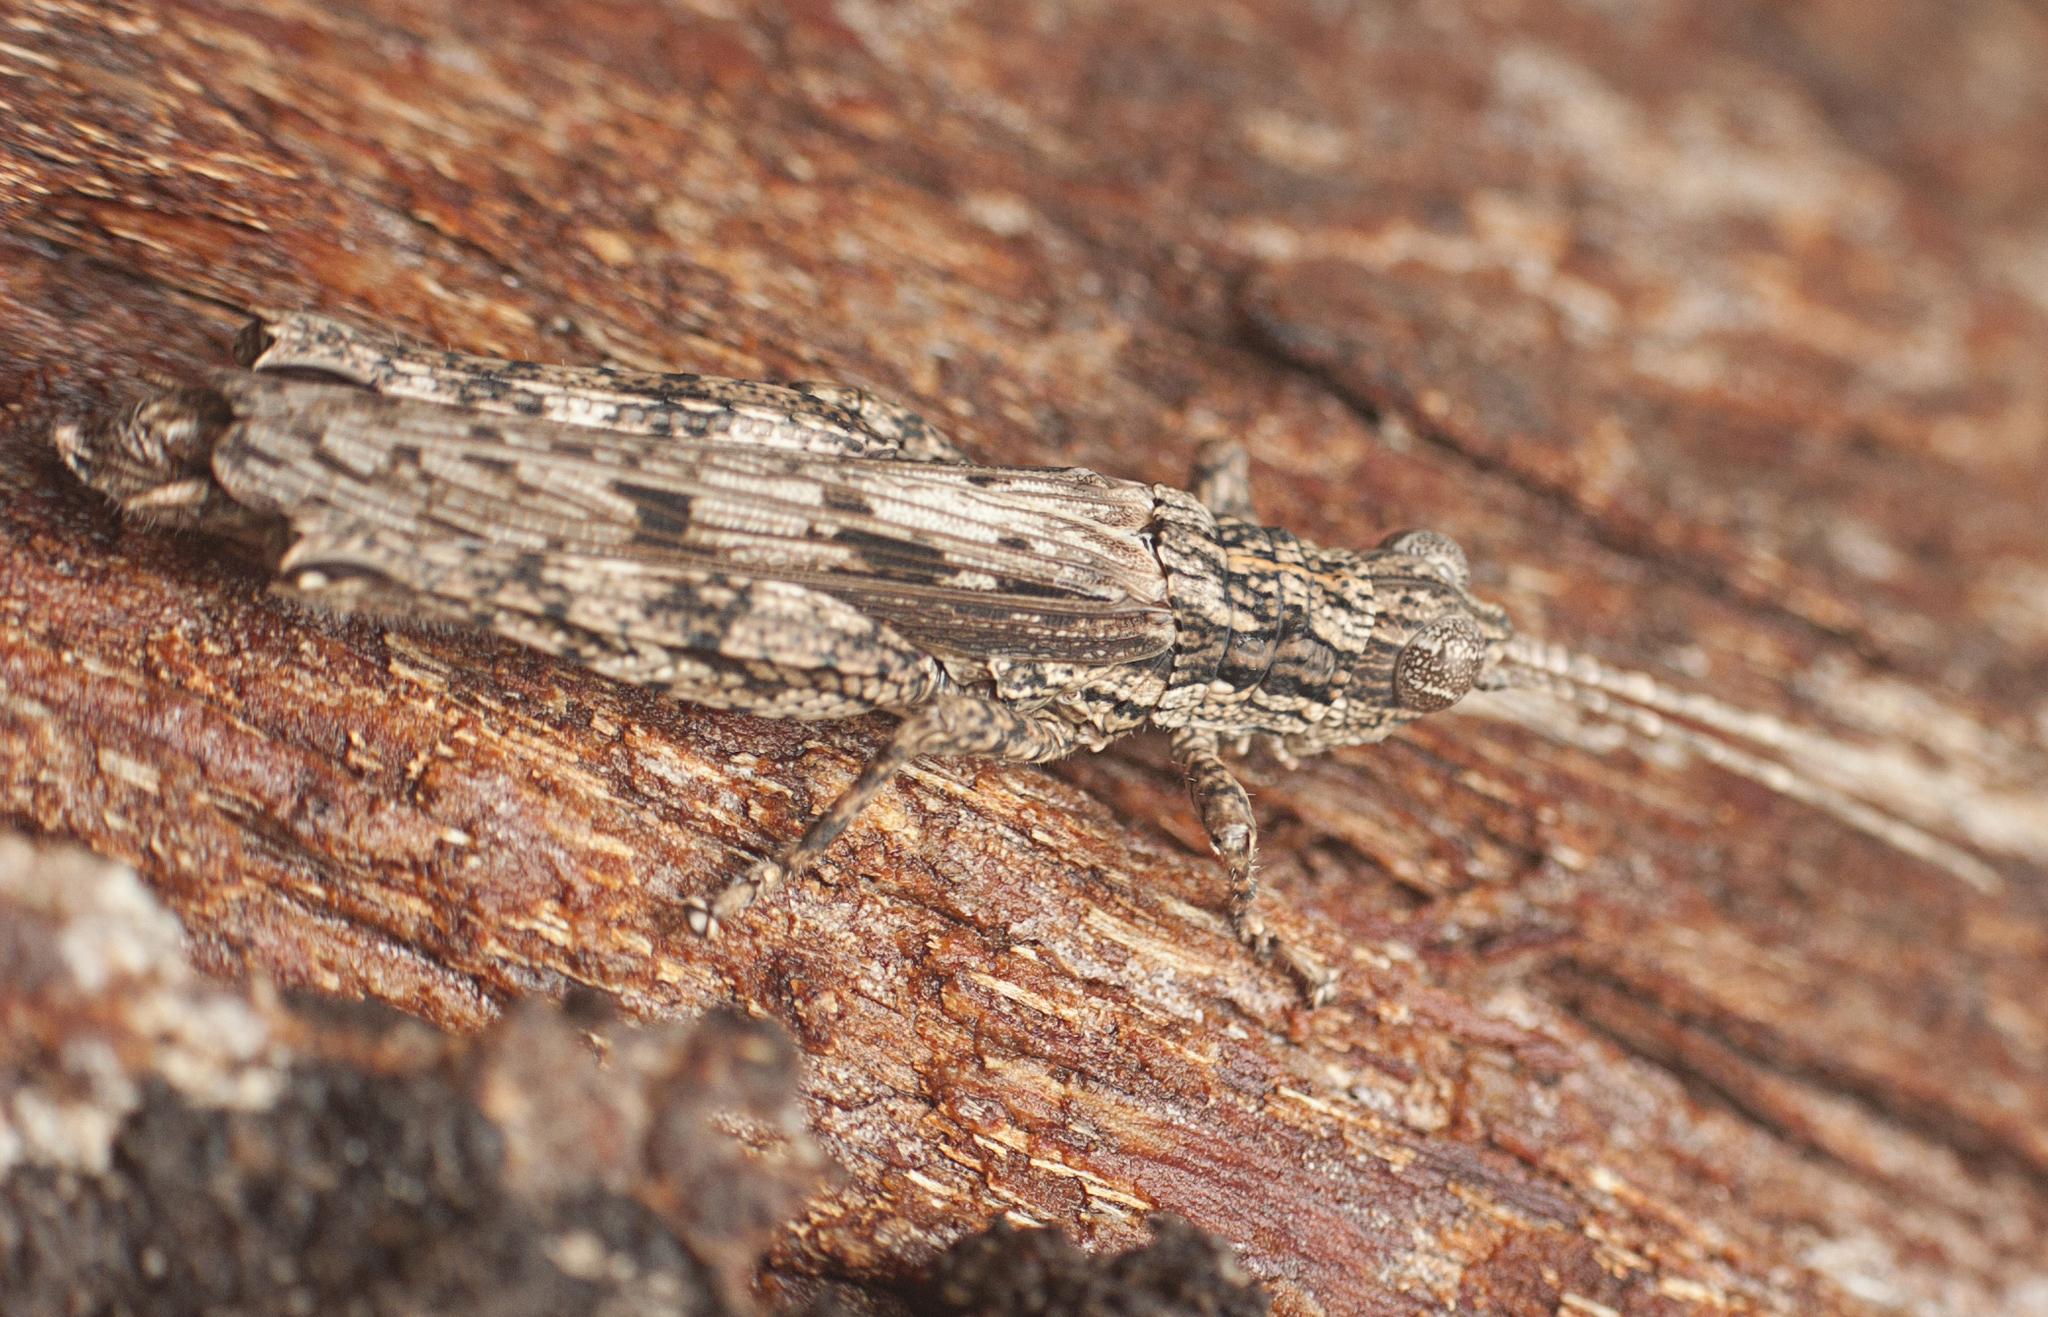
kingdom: Animalia
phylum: Arthropoda
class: Insecta
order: Orthoptera
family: Acrididae
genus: Adreppus
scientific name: Adreppus fallax
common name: Common adreppus
